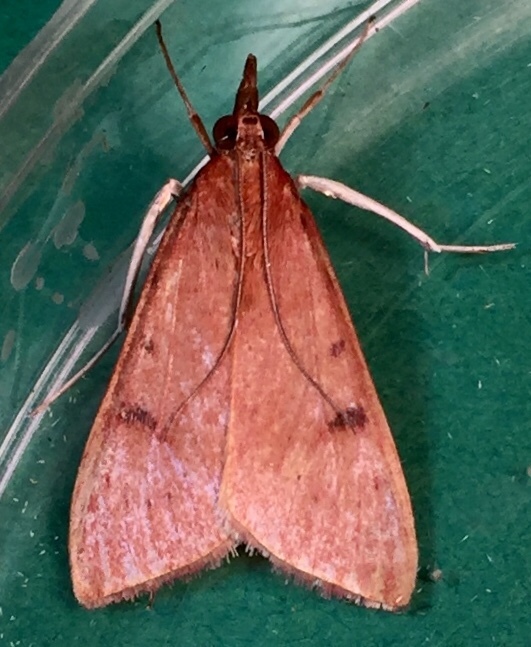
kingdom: Animalia
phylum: Arthropoda
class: Insecta
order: Lepidoptera
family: Crambidae
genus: Uresiphita
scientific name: Uresiphita reversalis
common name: Genista broom moth
